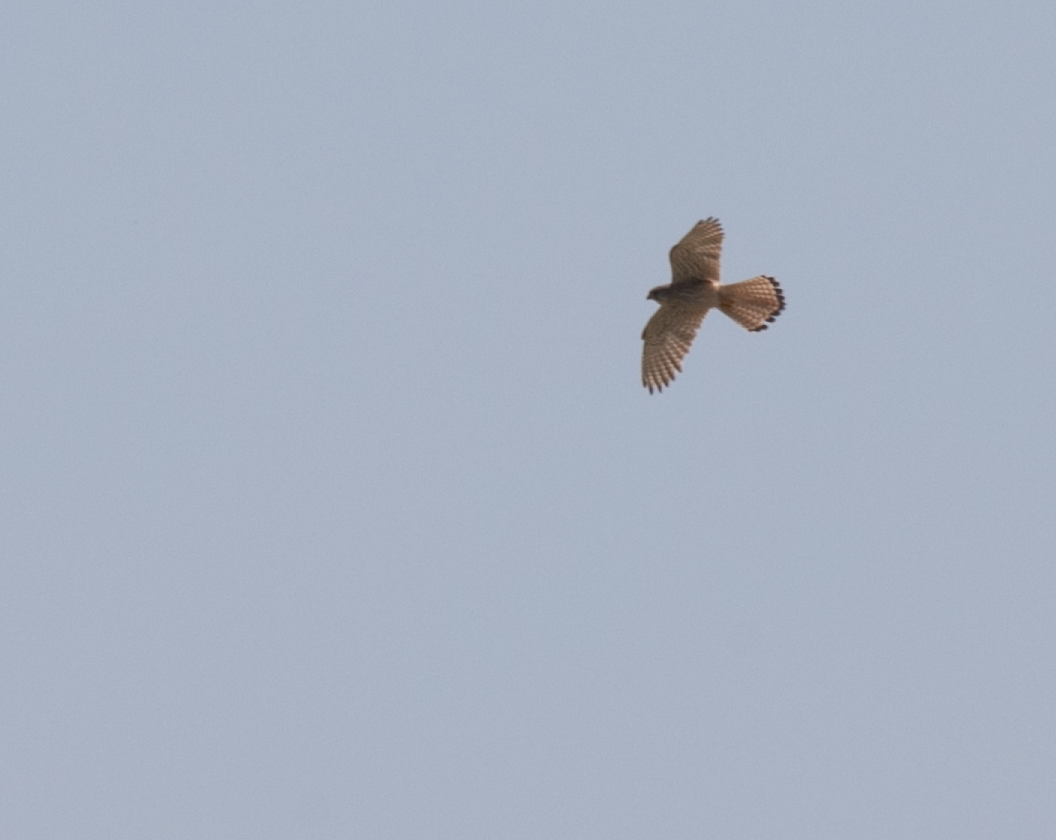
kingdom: Animalia
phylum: Chordata
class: Aves
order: Falconiformes
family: Falconidae
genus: Falco
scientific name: Falco tinnunculus
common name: Common kestrel
